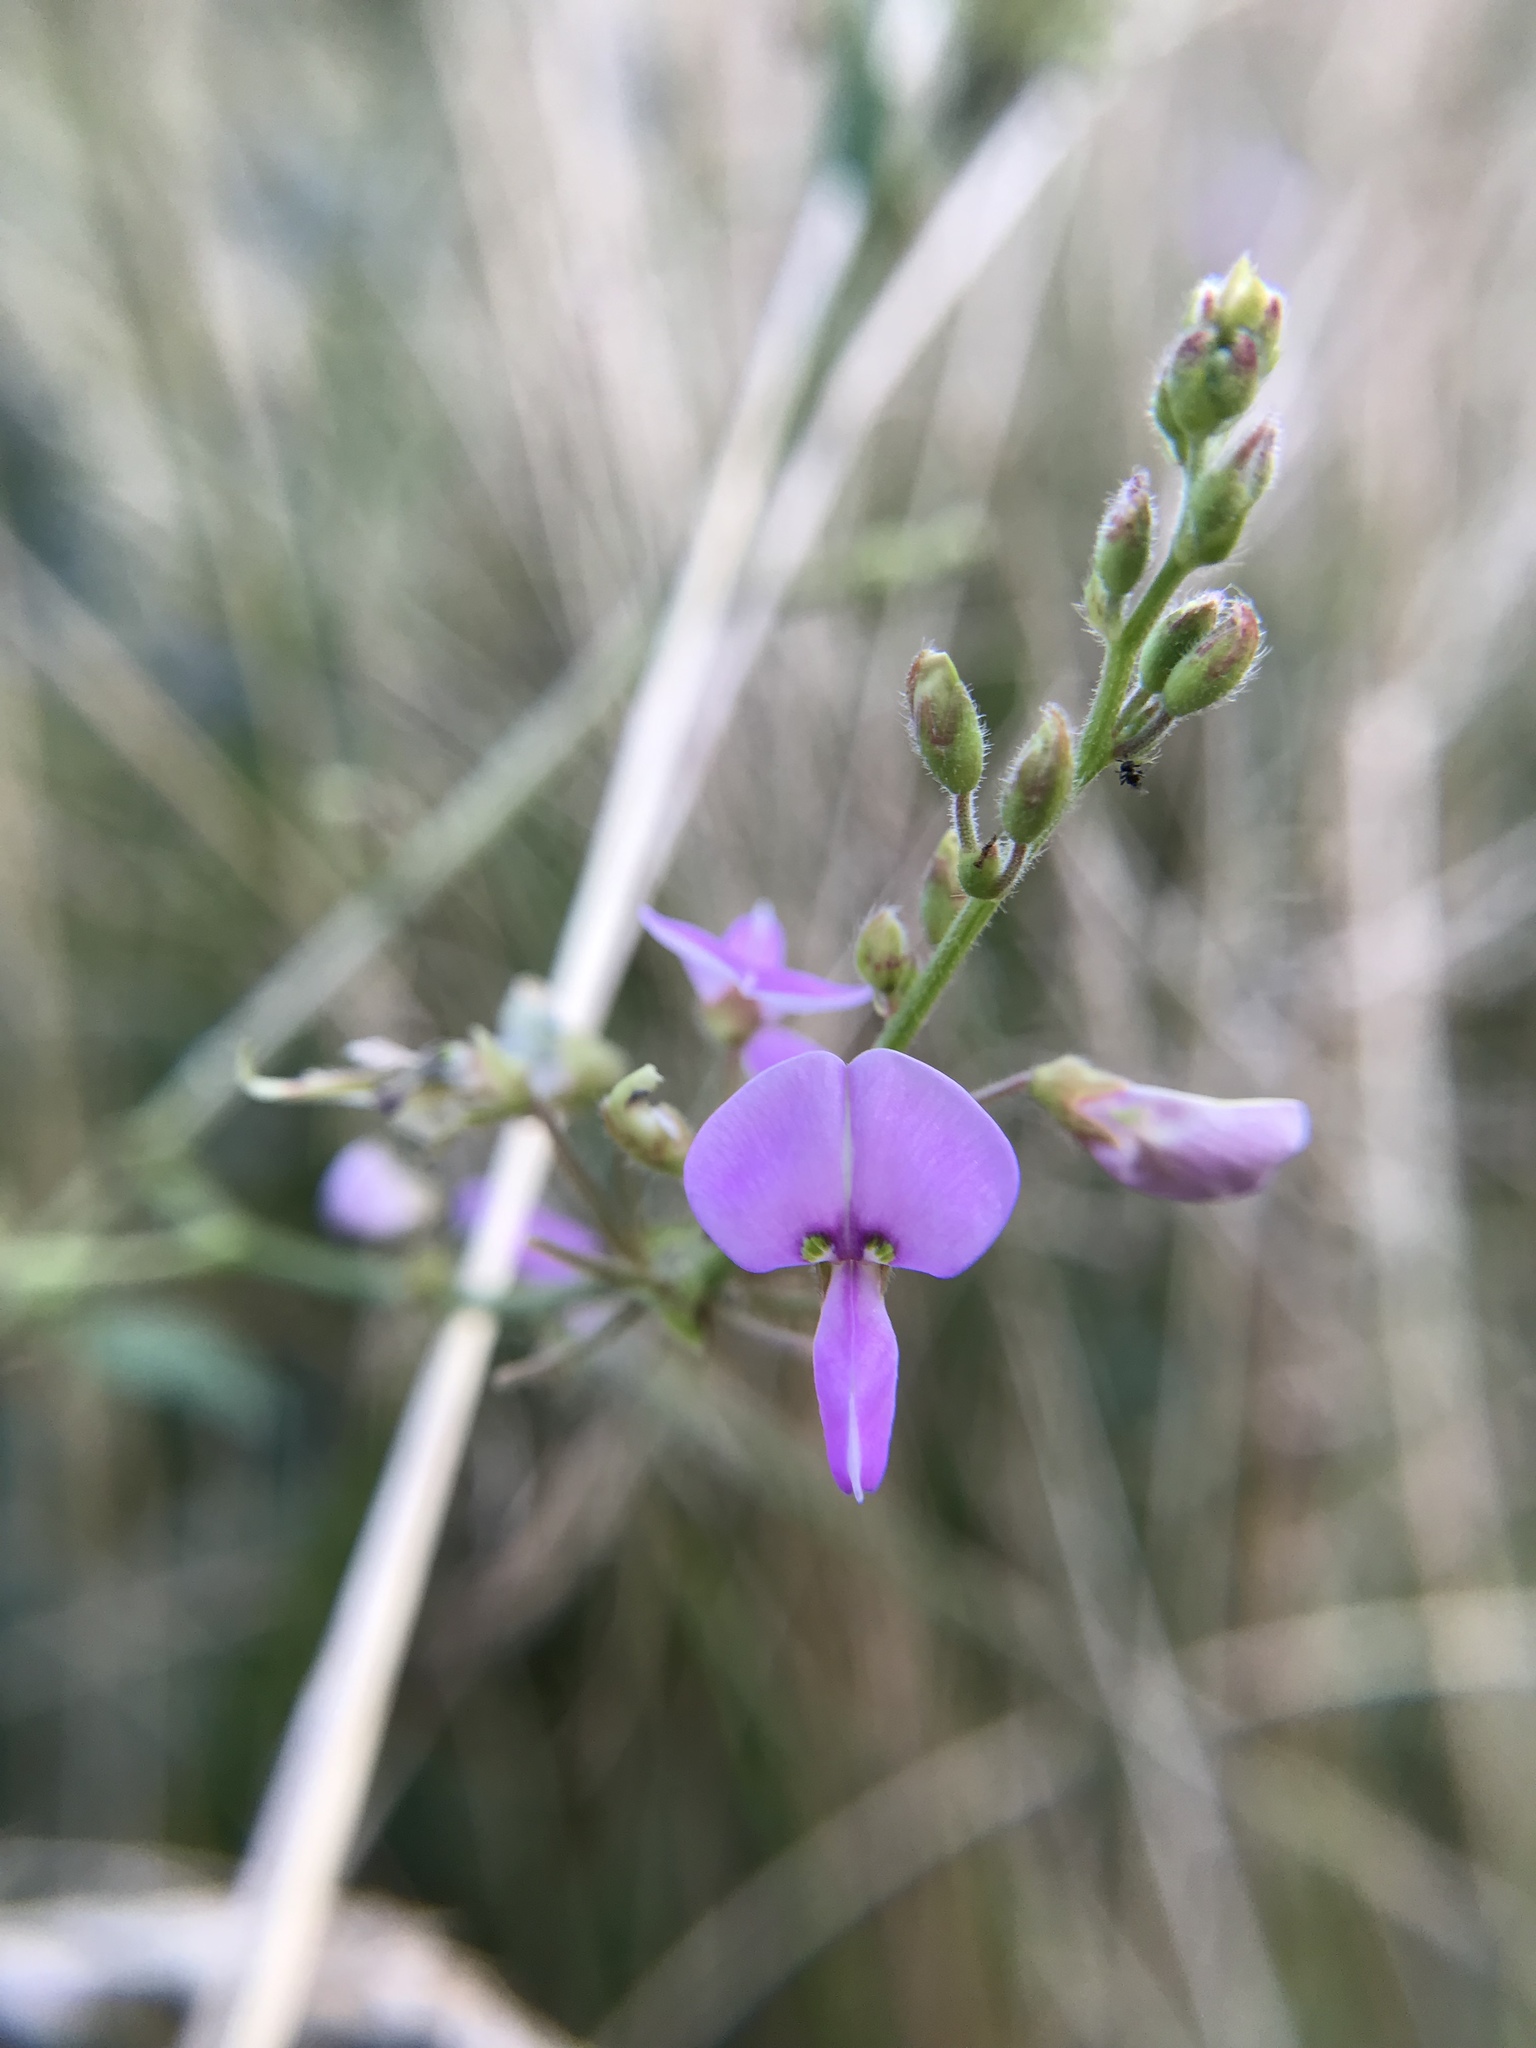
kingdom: Plantae
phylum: Tracheophyta
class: Magnoliopsida
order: Fabales
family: Fabaceae
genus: Desmodium
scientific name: Desmodium
